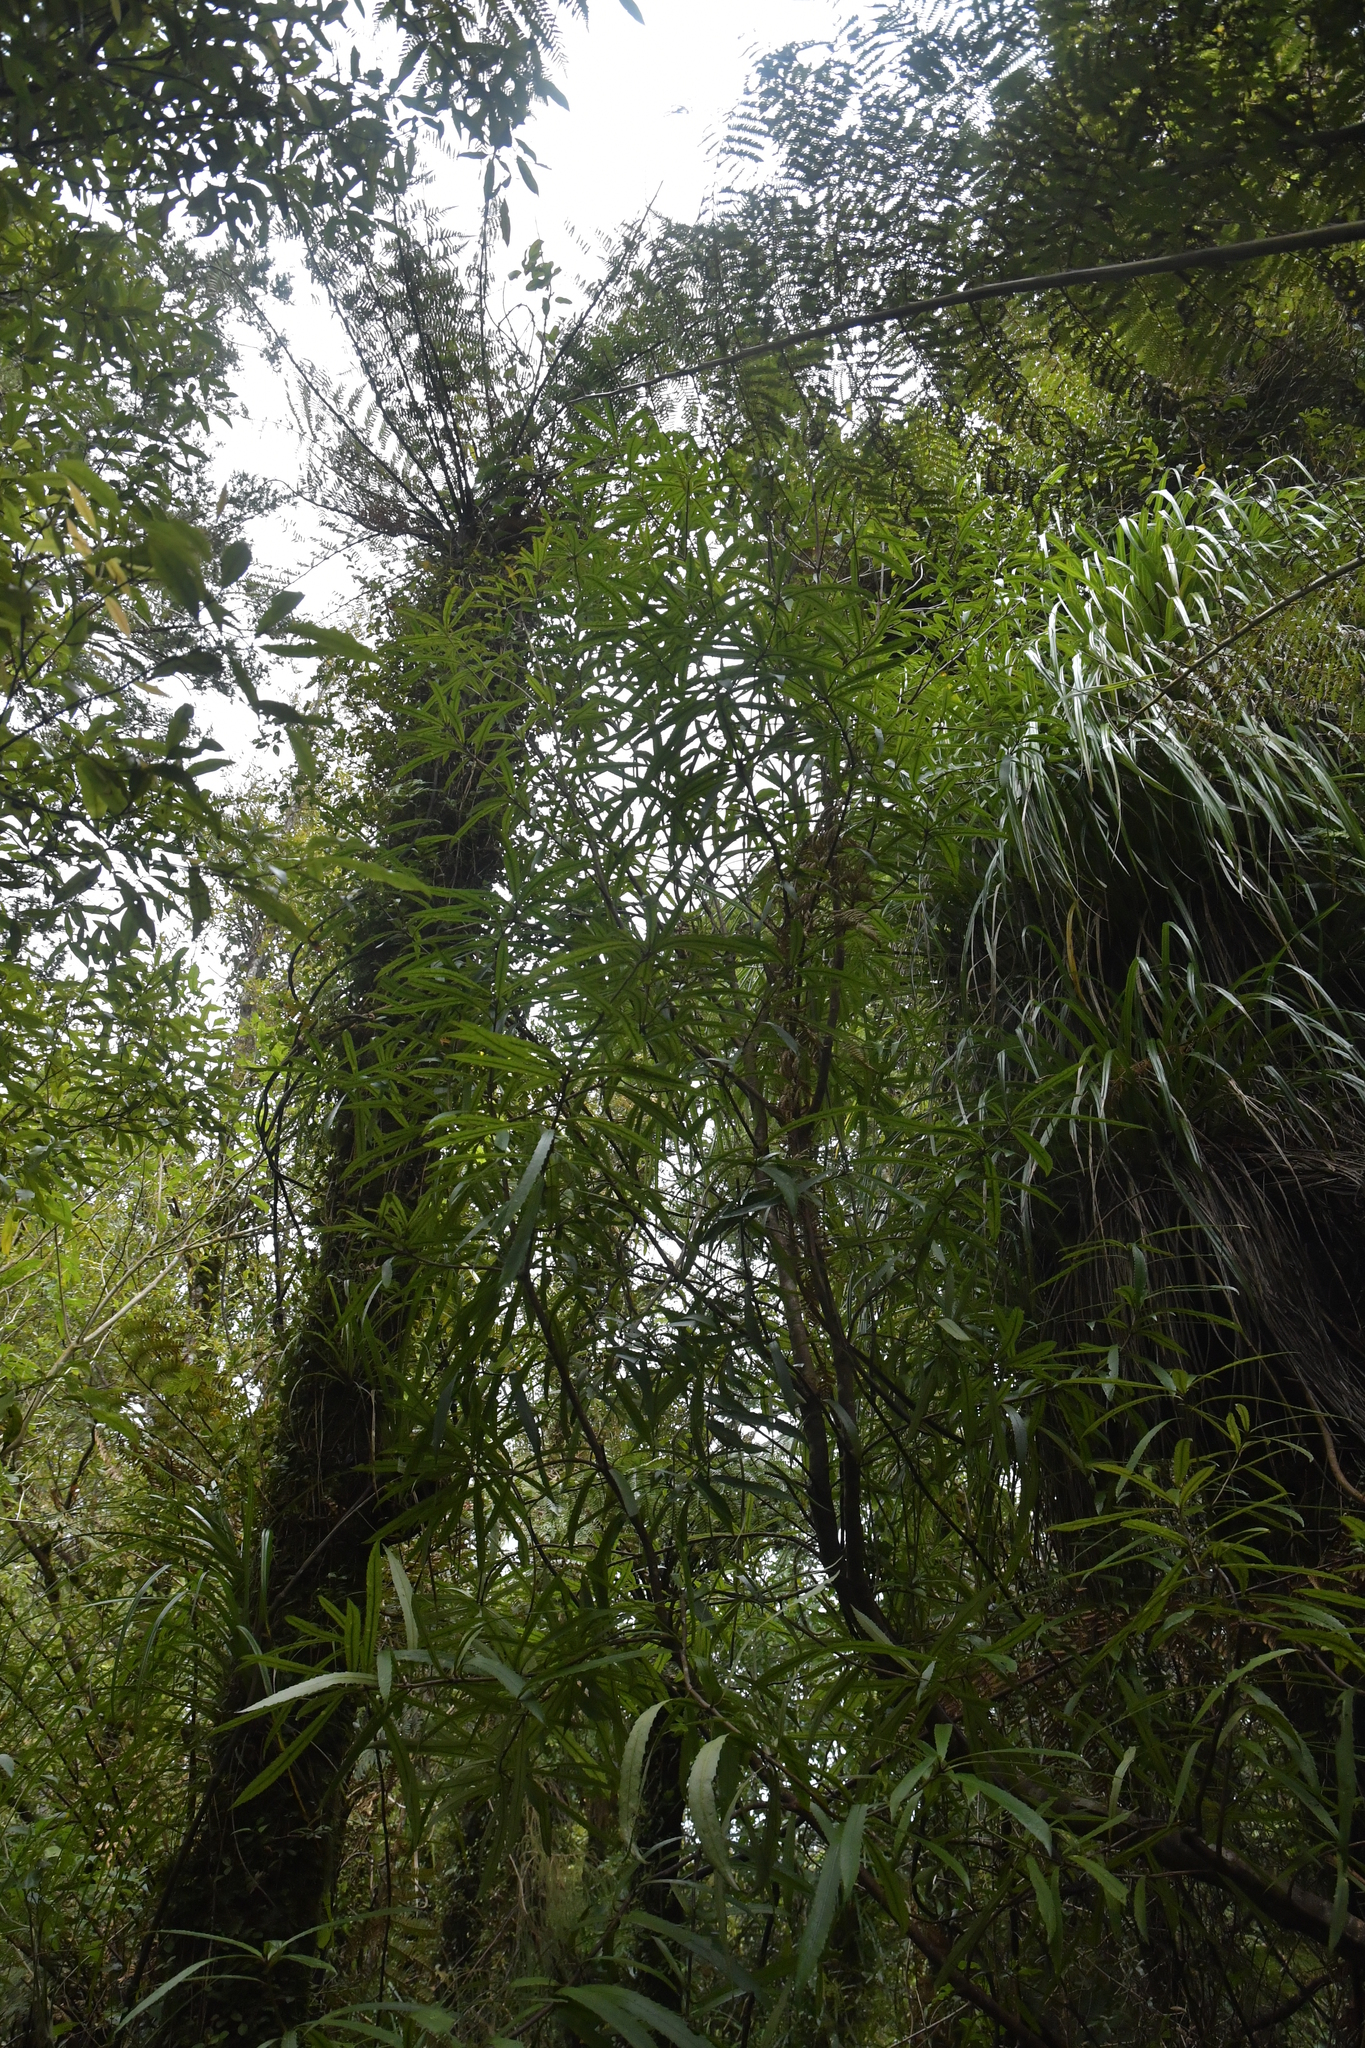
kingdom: Plantae
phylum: Tracheophyta
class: Magnoliopsida
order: Crossosomatales
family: Ixerbaceae
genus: Ixerba
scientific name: Ixerba brexioides
